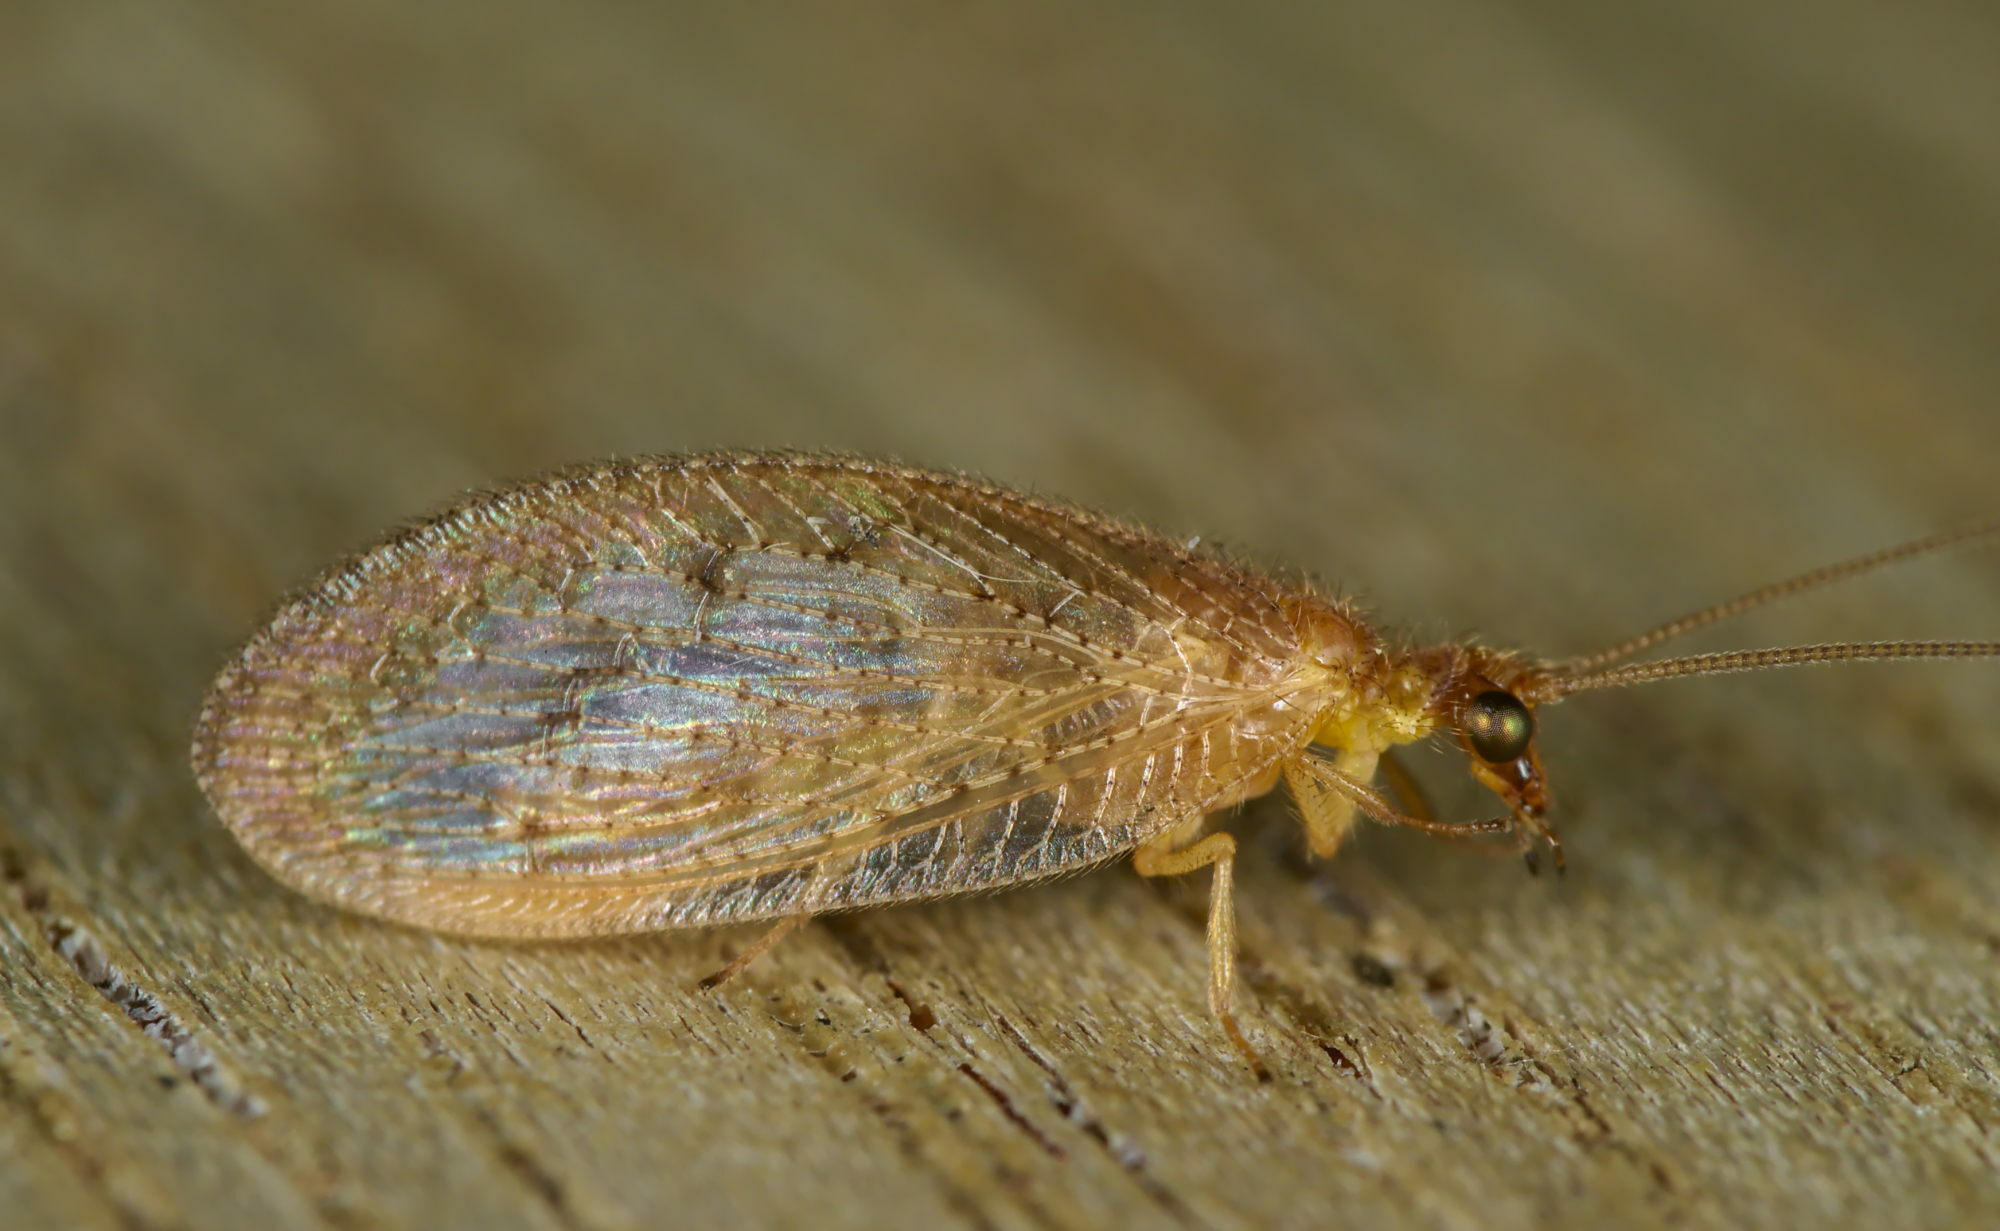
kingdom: Animalia
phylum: Arthropoda
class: Insecta
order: Neuroptera
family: Hemerobiidae
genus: Hemerobius
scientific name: Hemerobius stigma
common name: Brown pine lacewing
